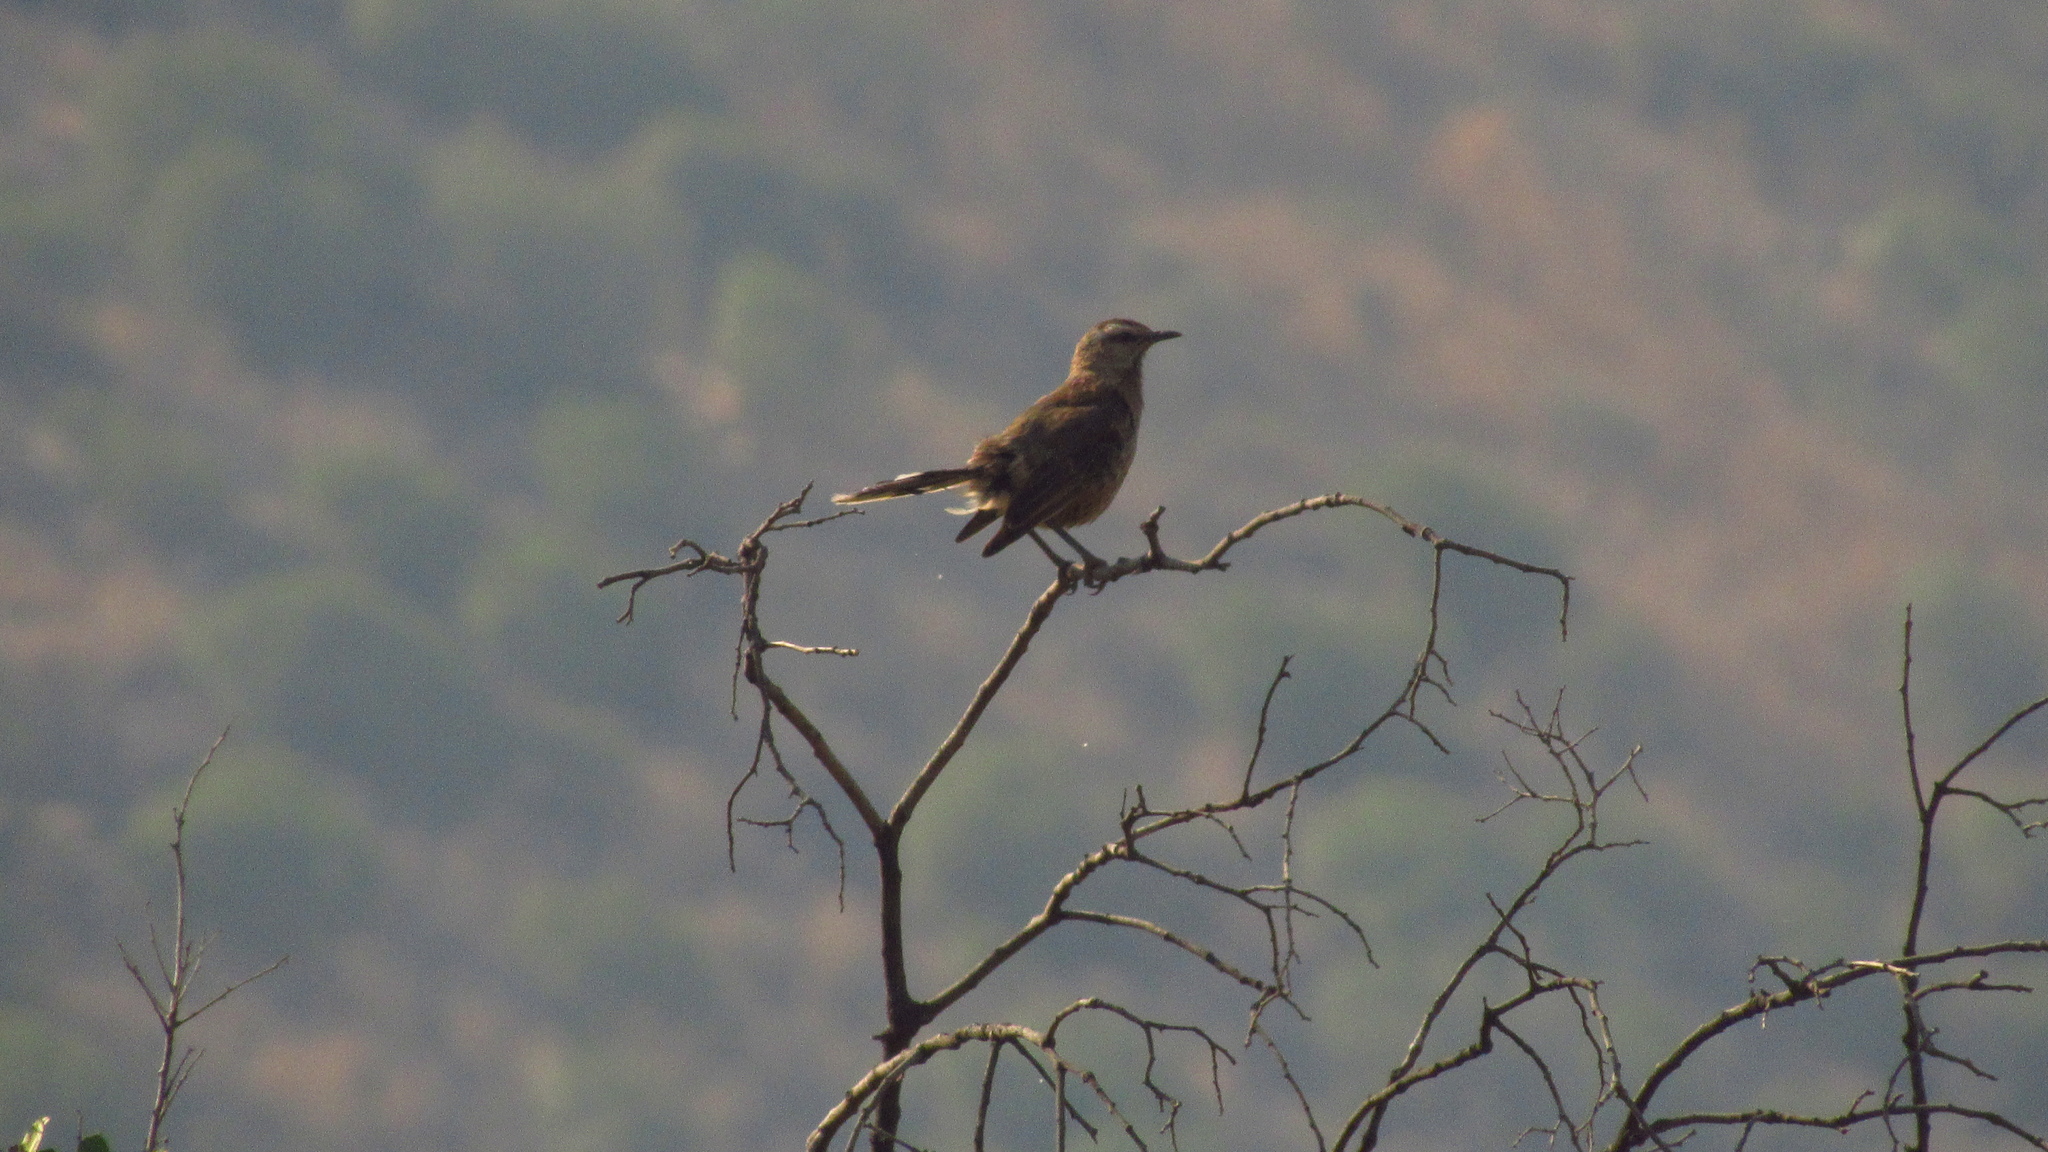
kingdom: Animalia
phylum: Chordata
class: Aves
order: Passeriformes
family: Mimidae
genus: Mimus
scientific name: Mimus thenca
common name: Chilean mockingbird
